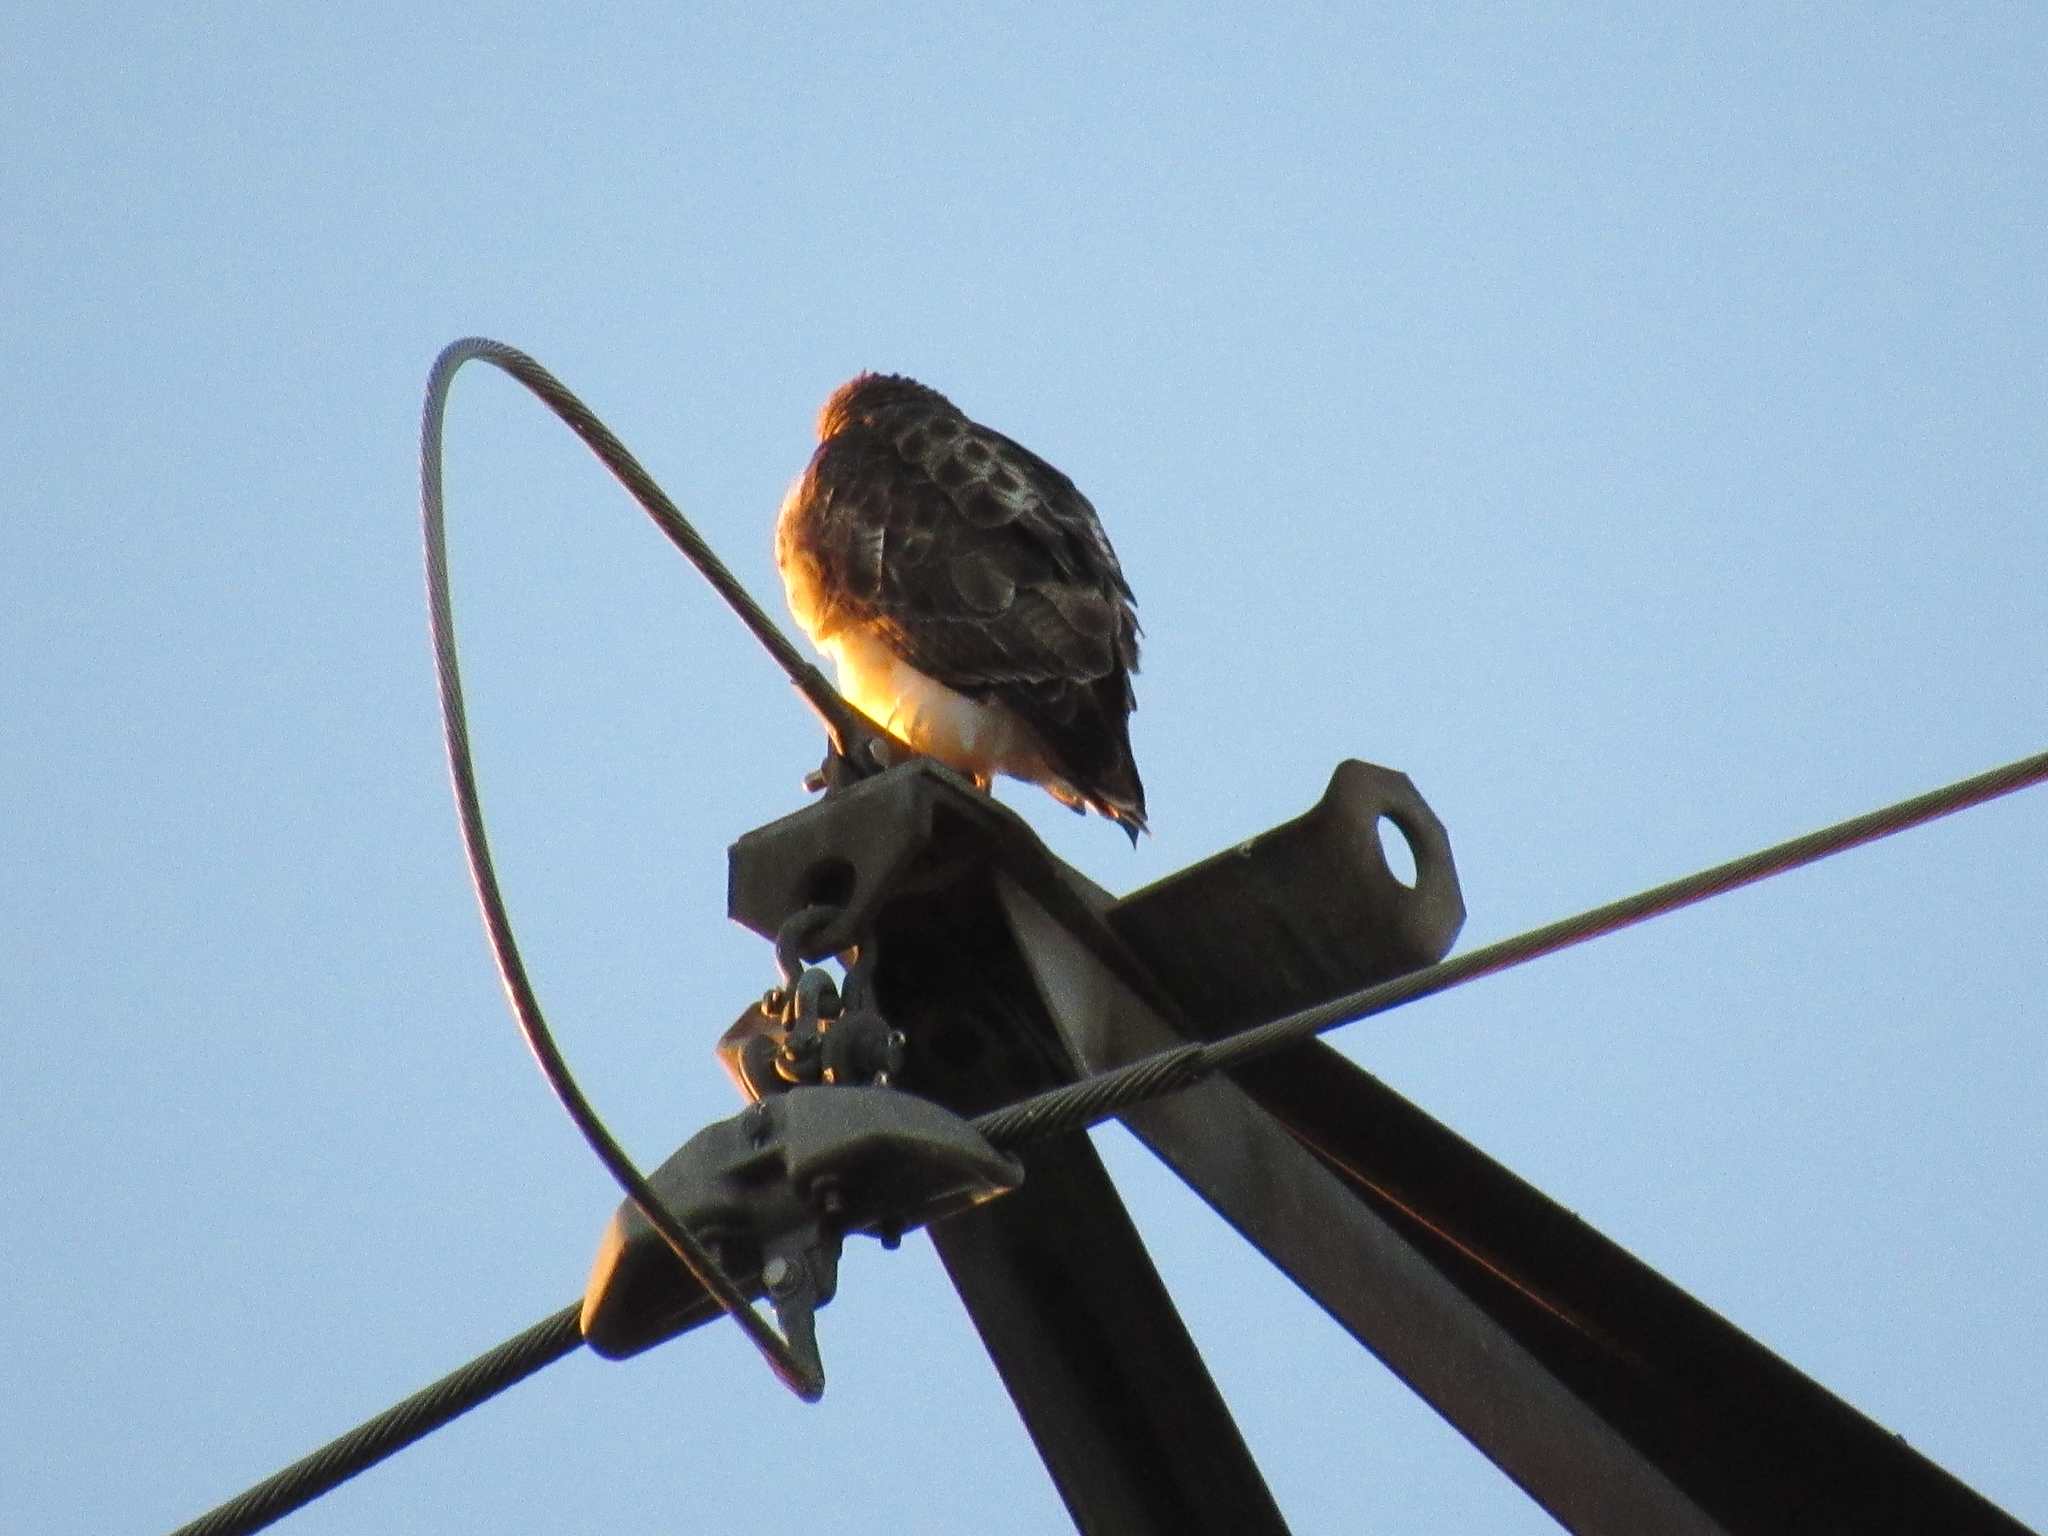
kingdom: Animalia
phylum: Chordata
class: Aves
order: Accipitriformes
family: Accipitridae
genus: Buteo
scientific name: Buteo jamaicensis
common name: Red-tailed hawk
